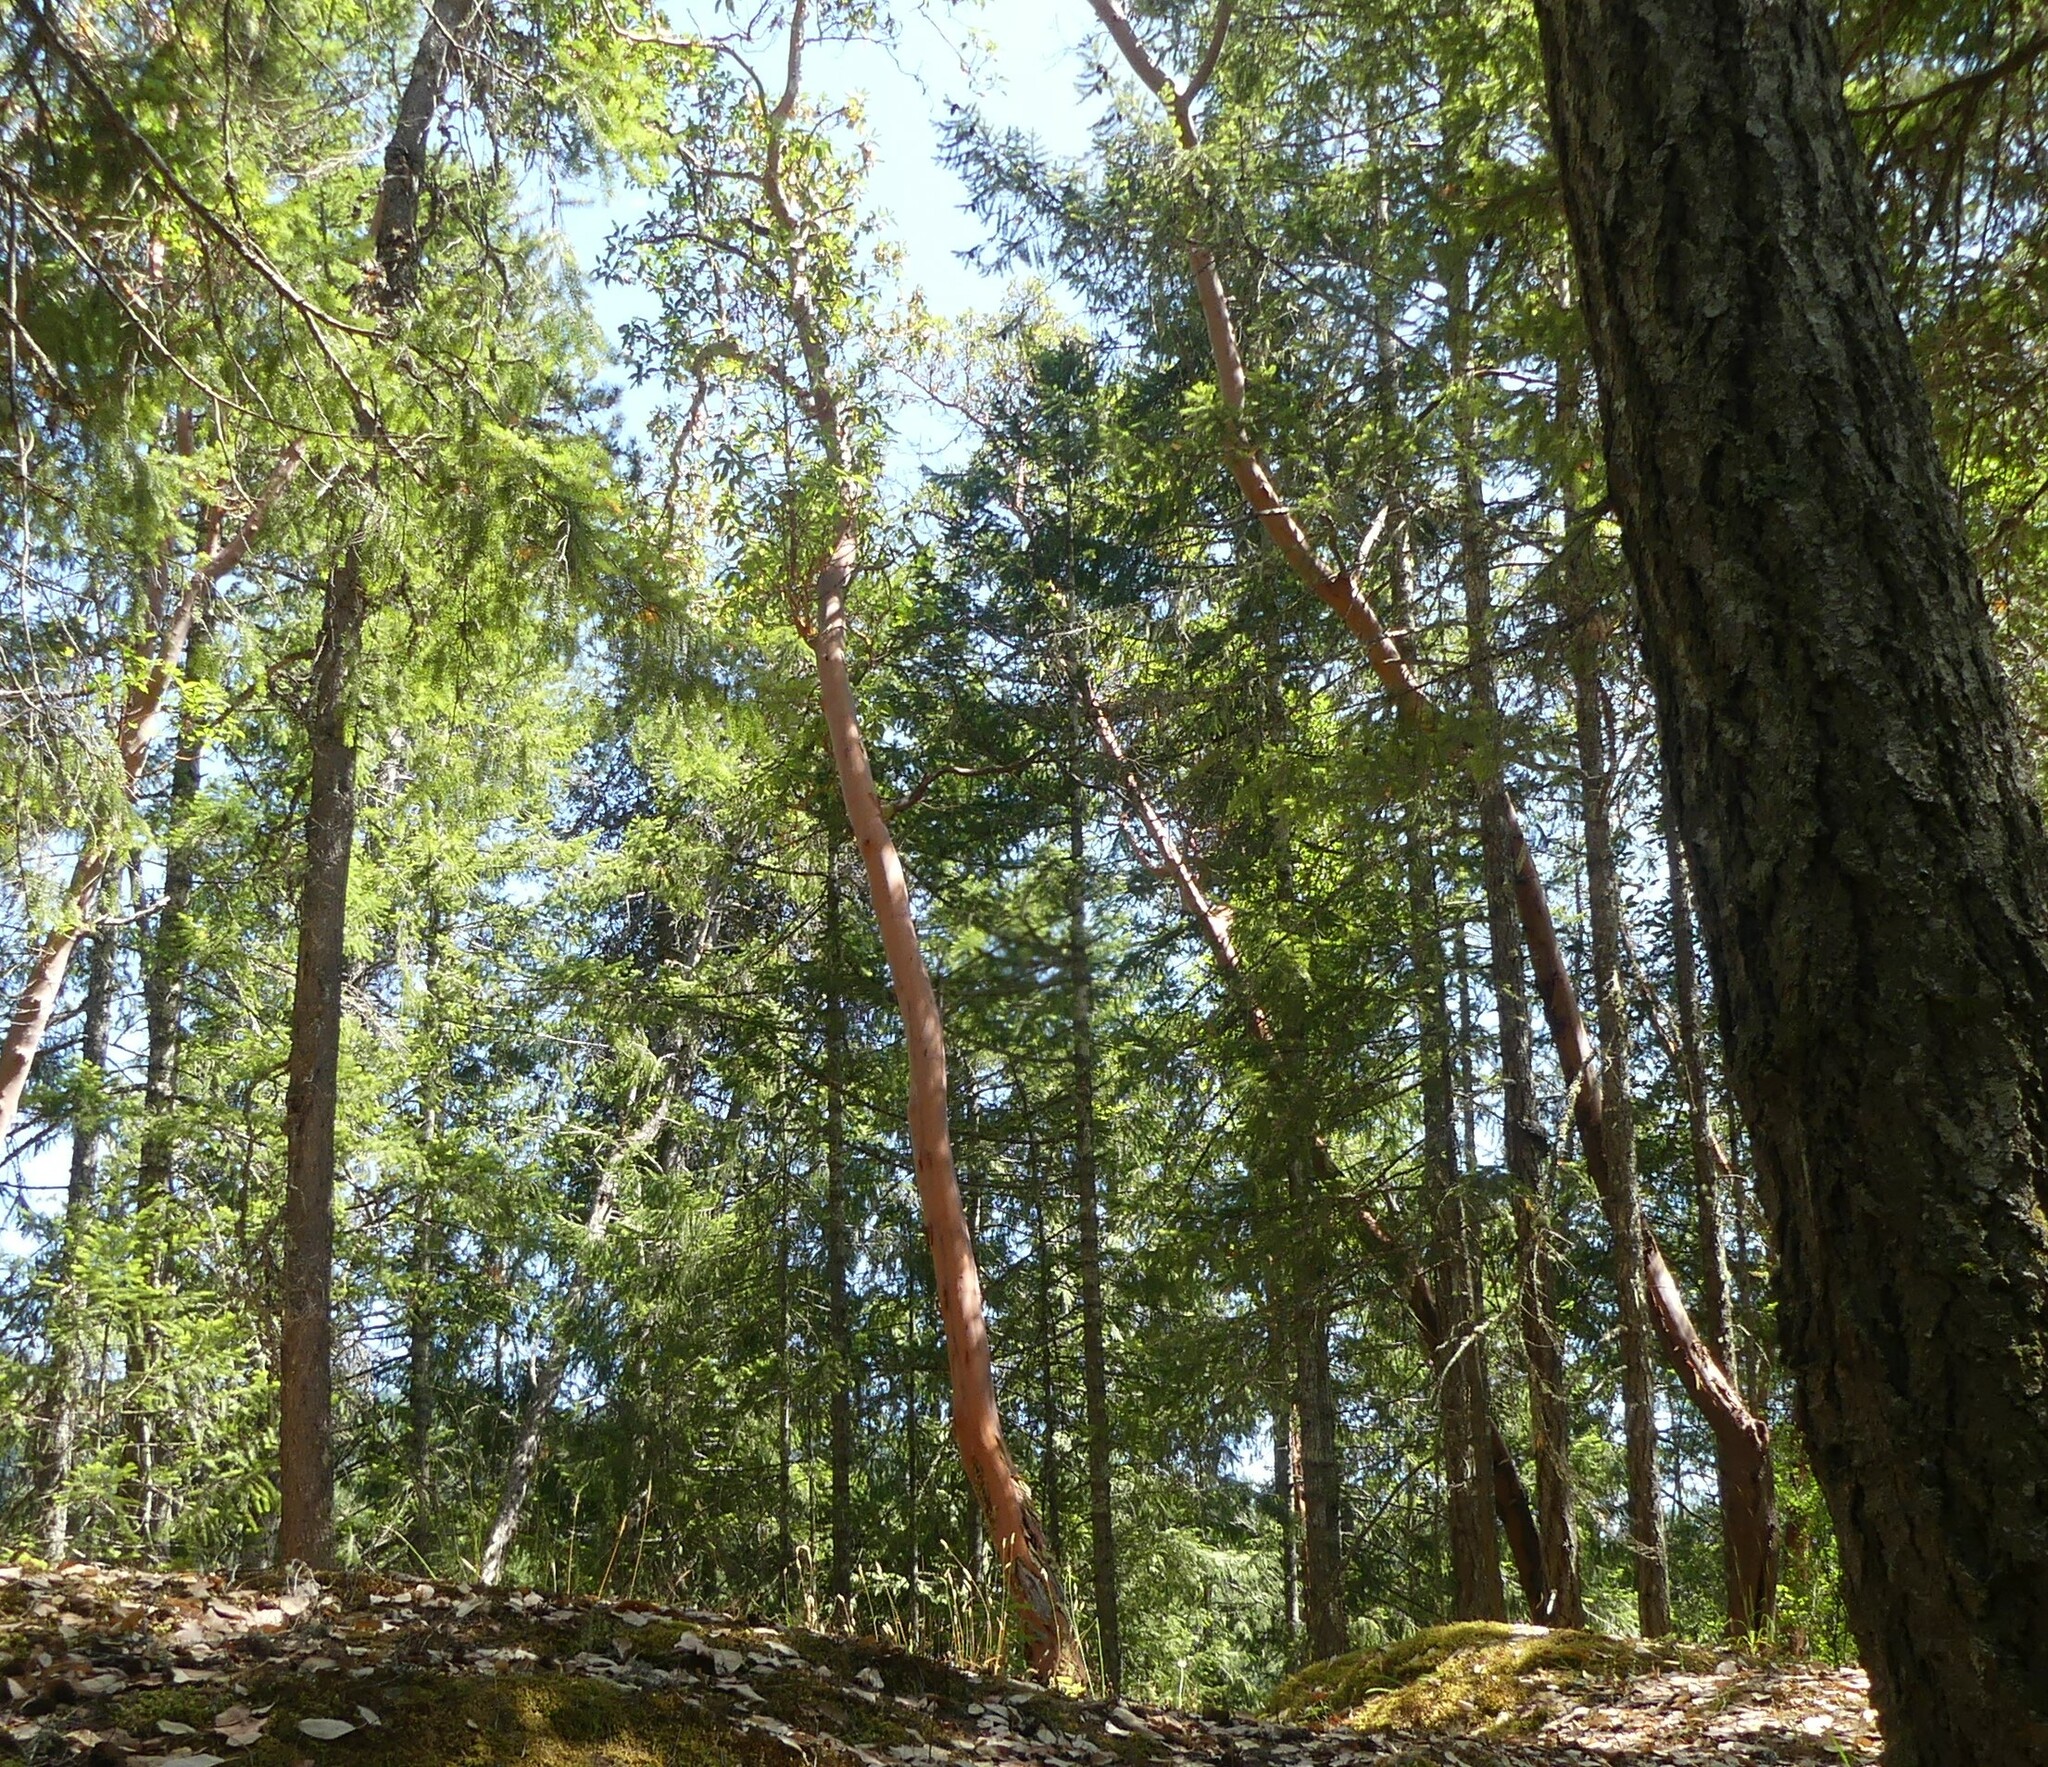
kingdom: Plantae
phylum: Tracheophyta
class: Magnoliopsida
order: Ericales
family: Ericaceae
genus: Arbutus
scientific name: Arbutus menziesii
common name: Pacific madrone
